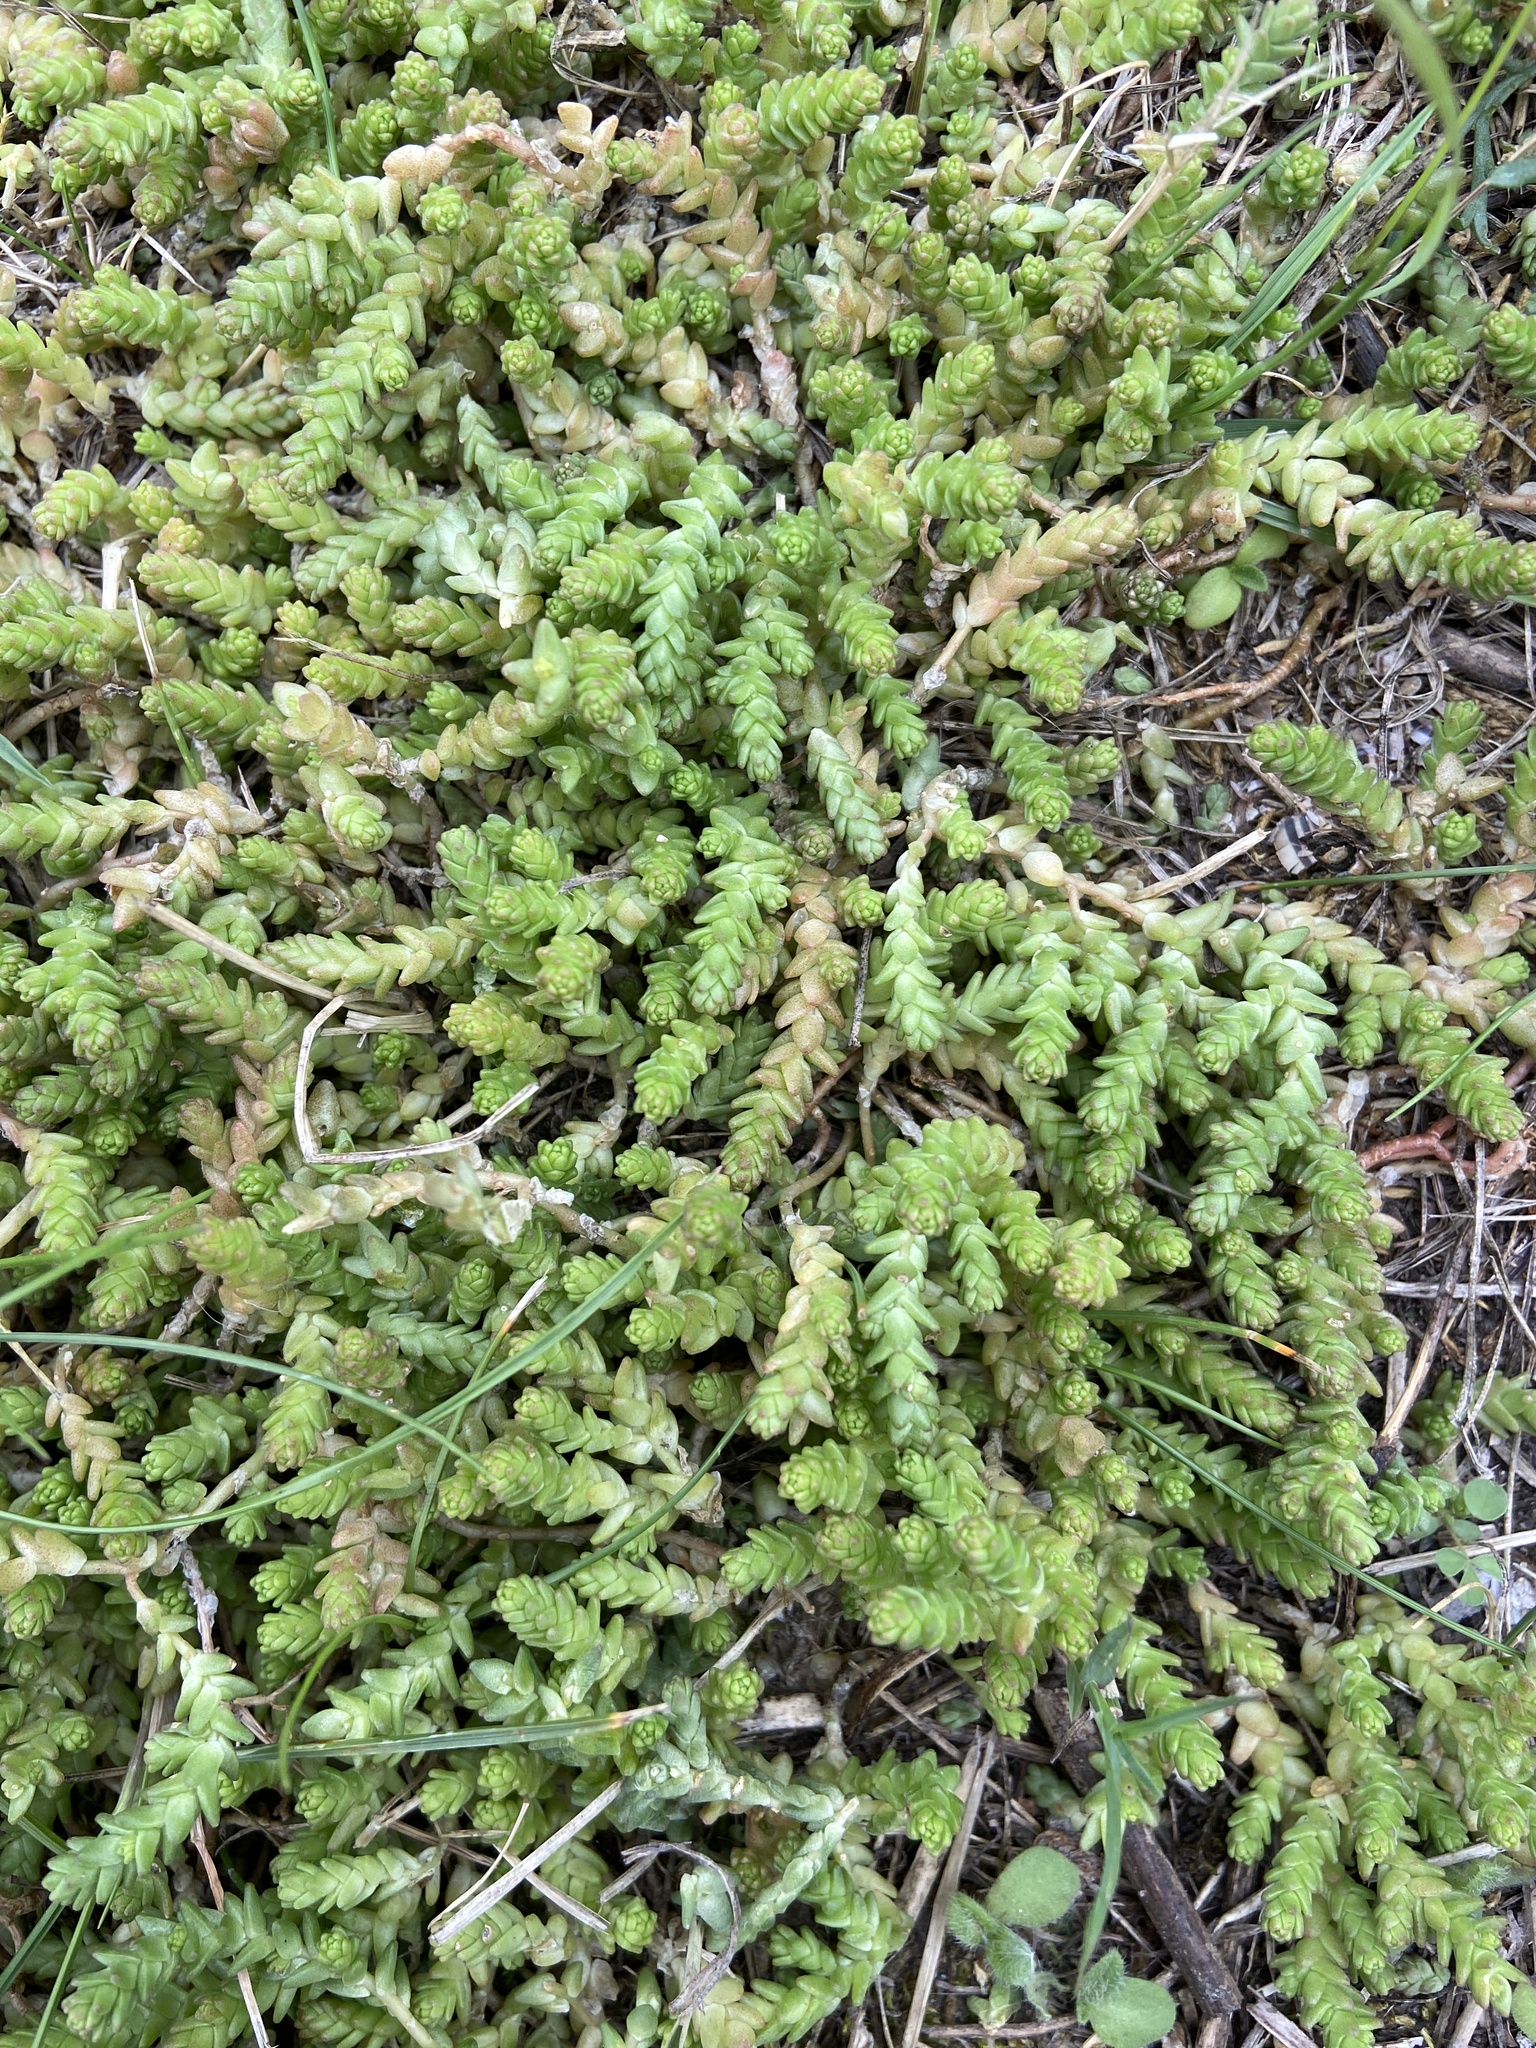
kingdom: Plantae
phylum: Tracheophyta
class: Magnoliopsida
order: Saxifragales
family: Crassulaceae
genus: Sedum
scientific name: Sedum acre
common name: Biting stonecrop
